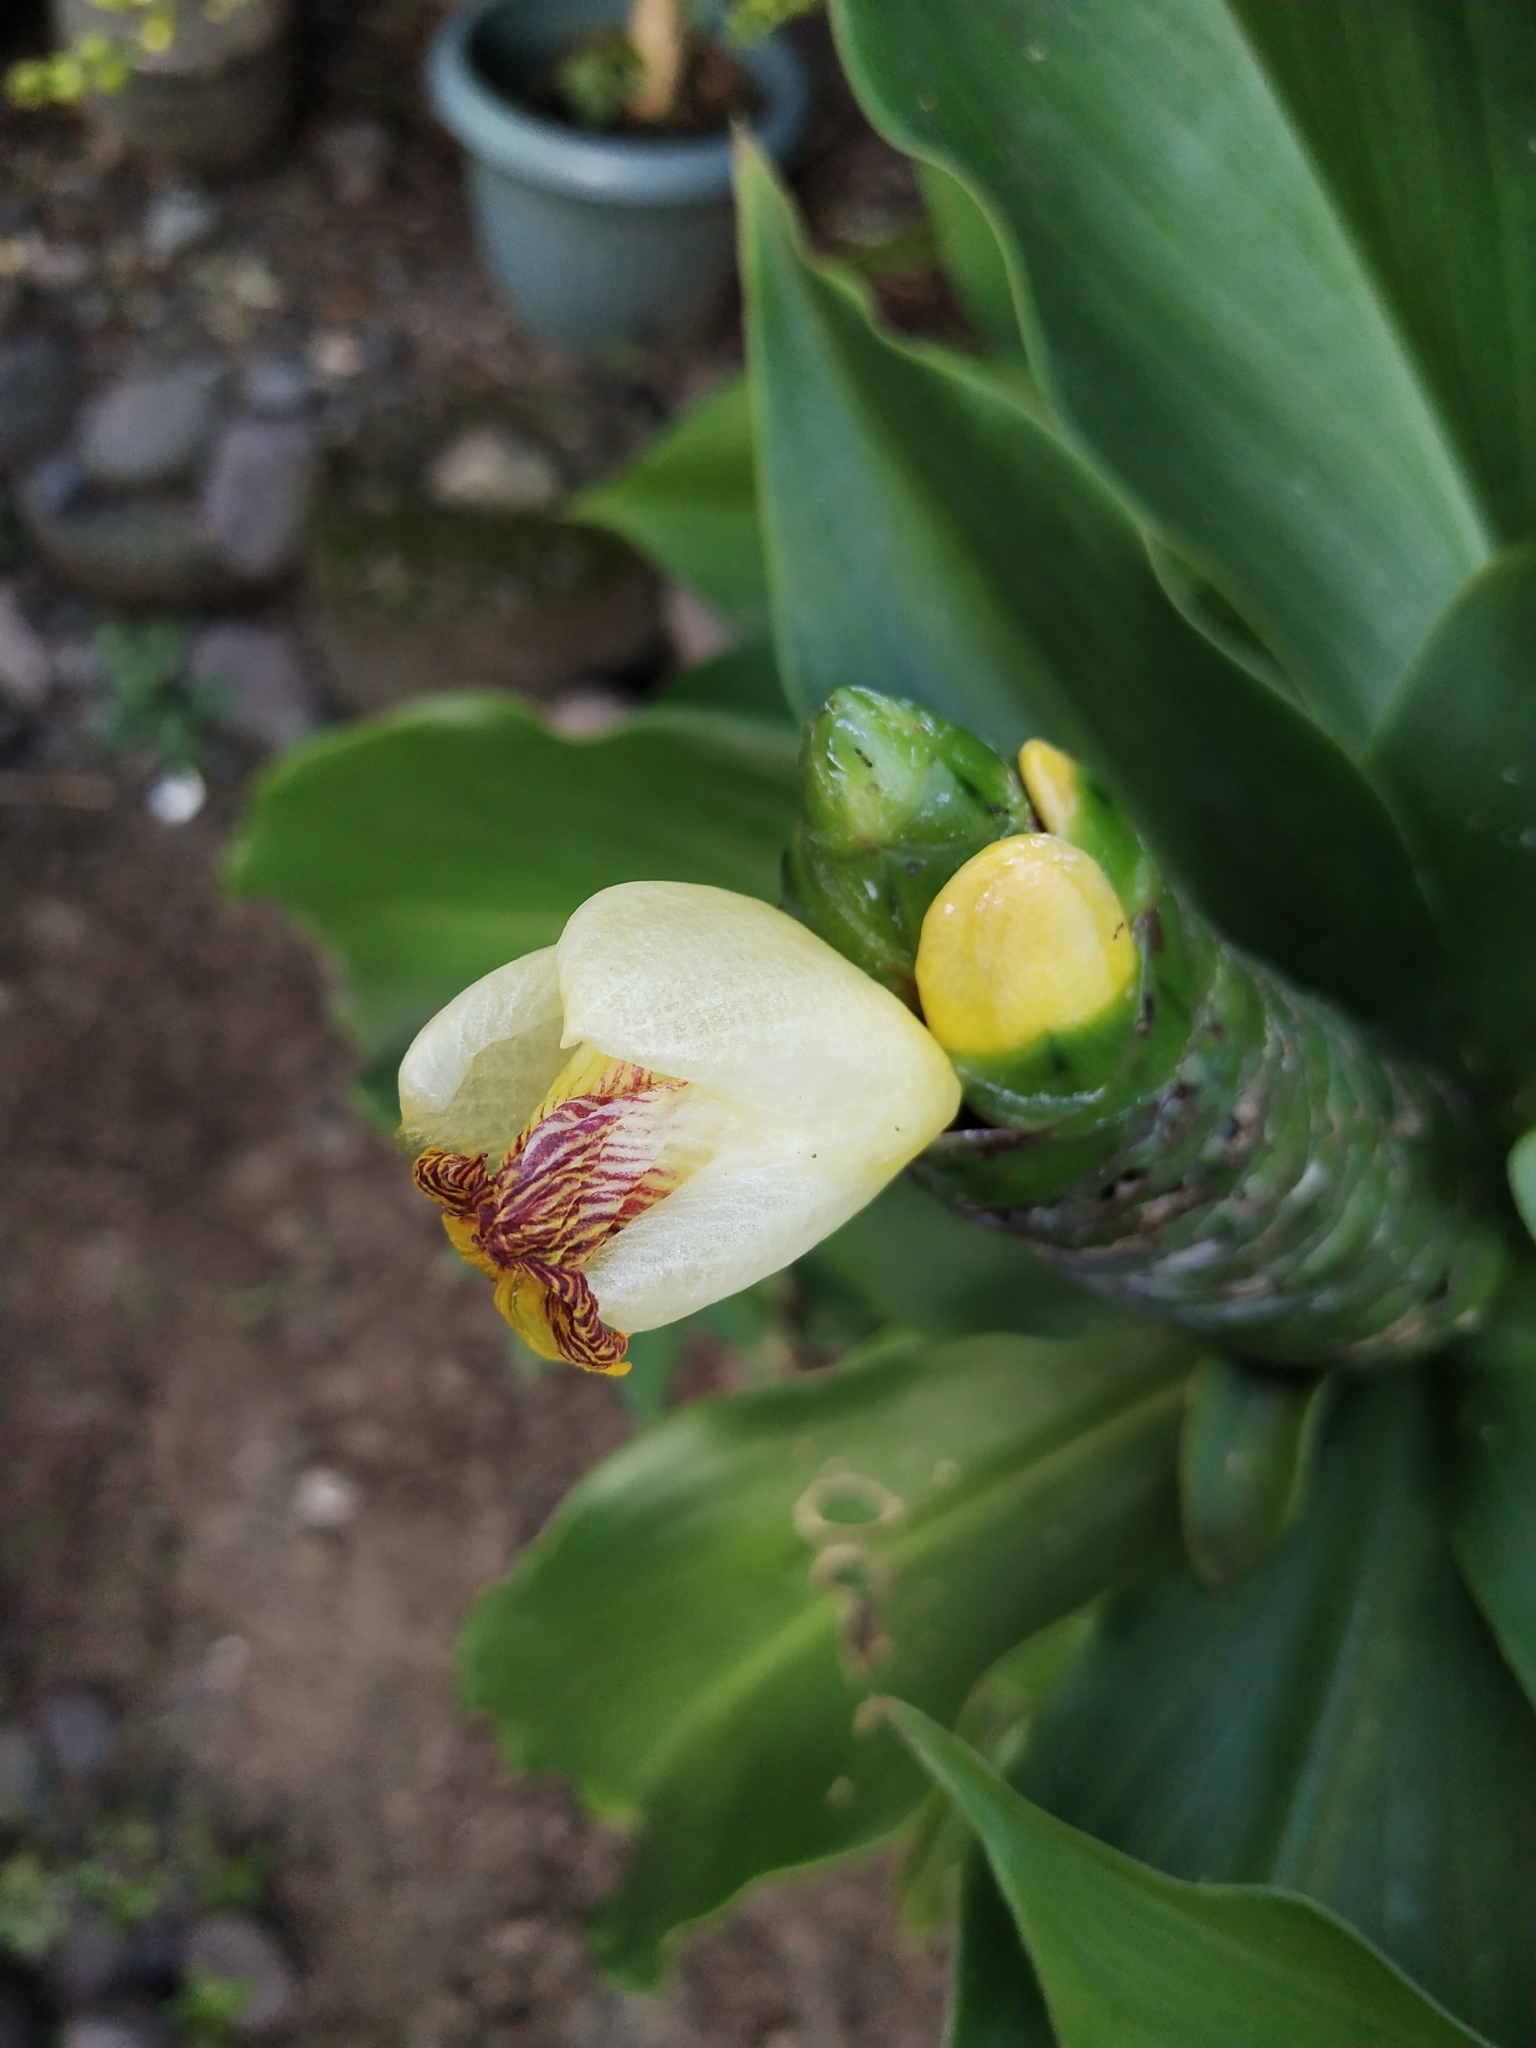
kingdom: Plantae
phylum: Tracheophyta
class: Liliopsida
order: Zingiberales
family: Costaceae
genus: Costus
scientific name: Costus pictus
